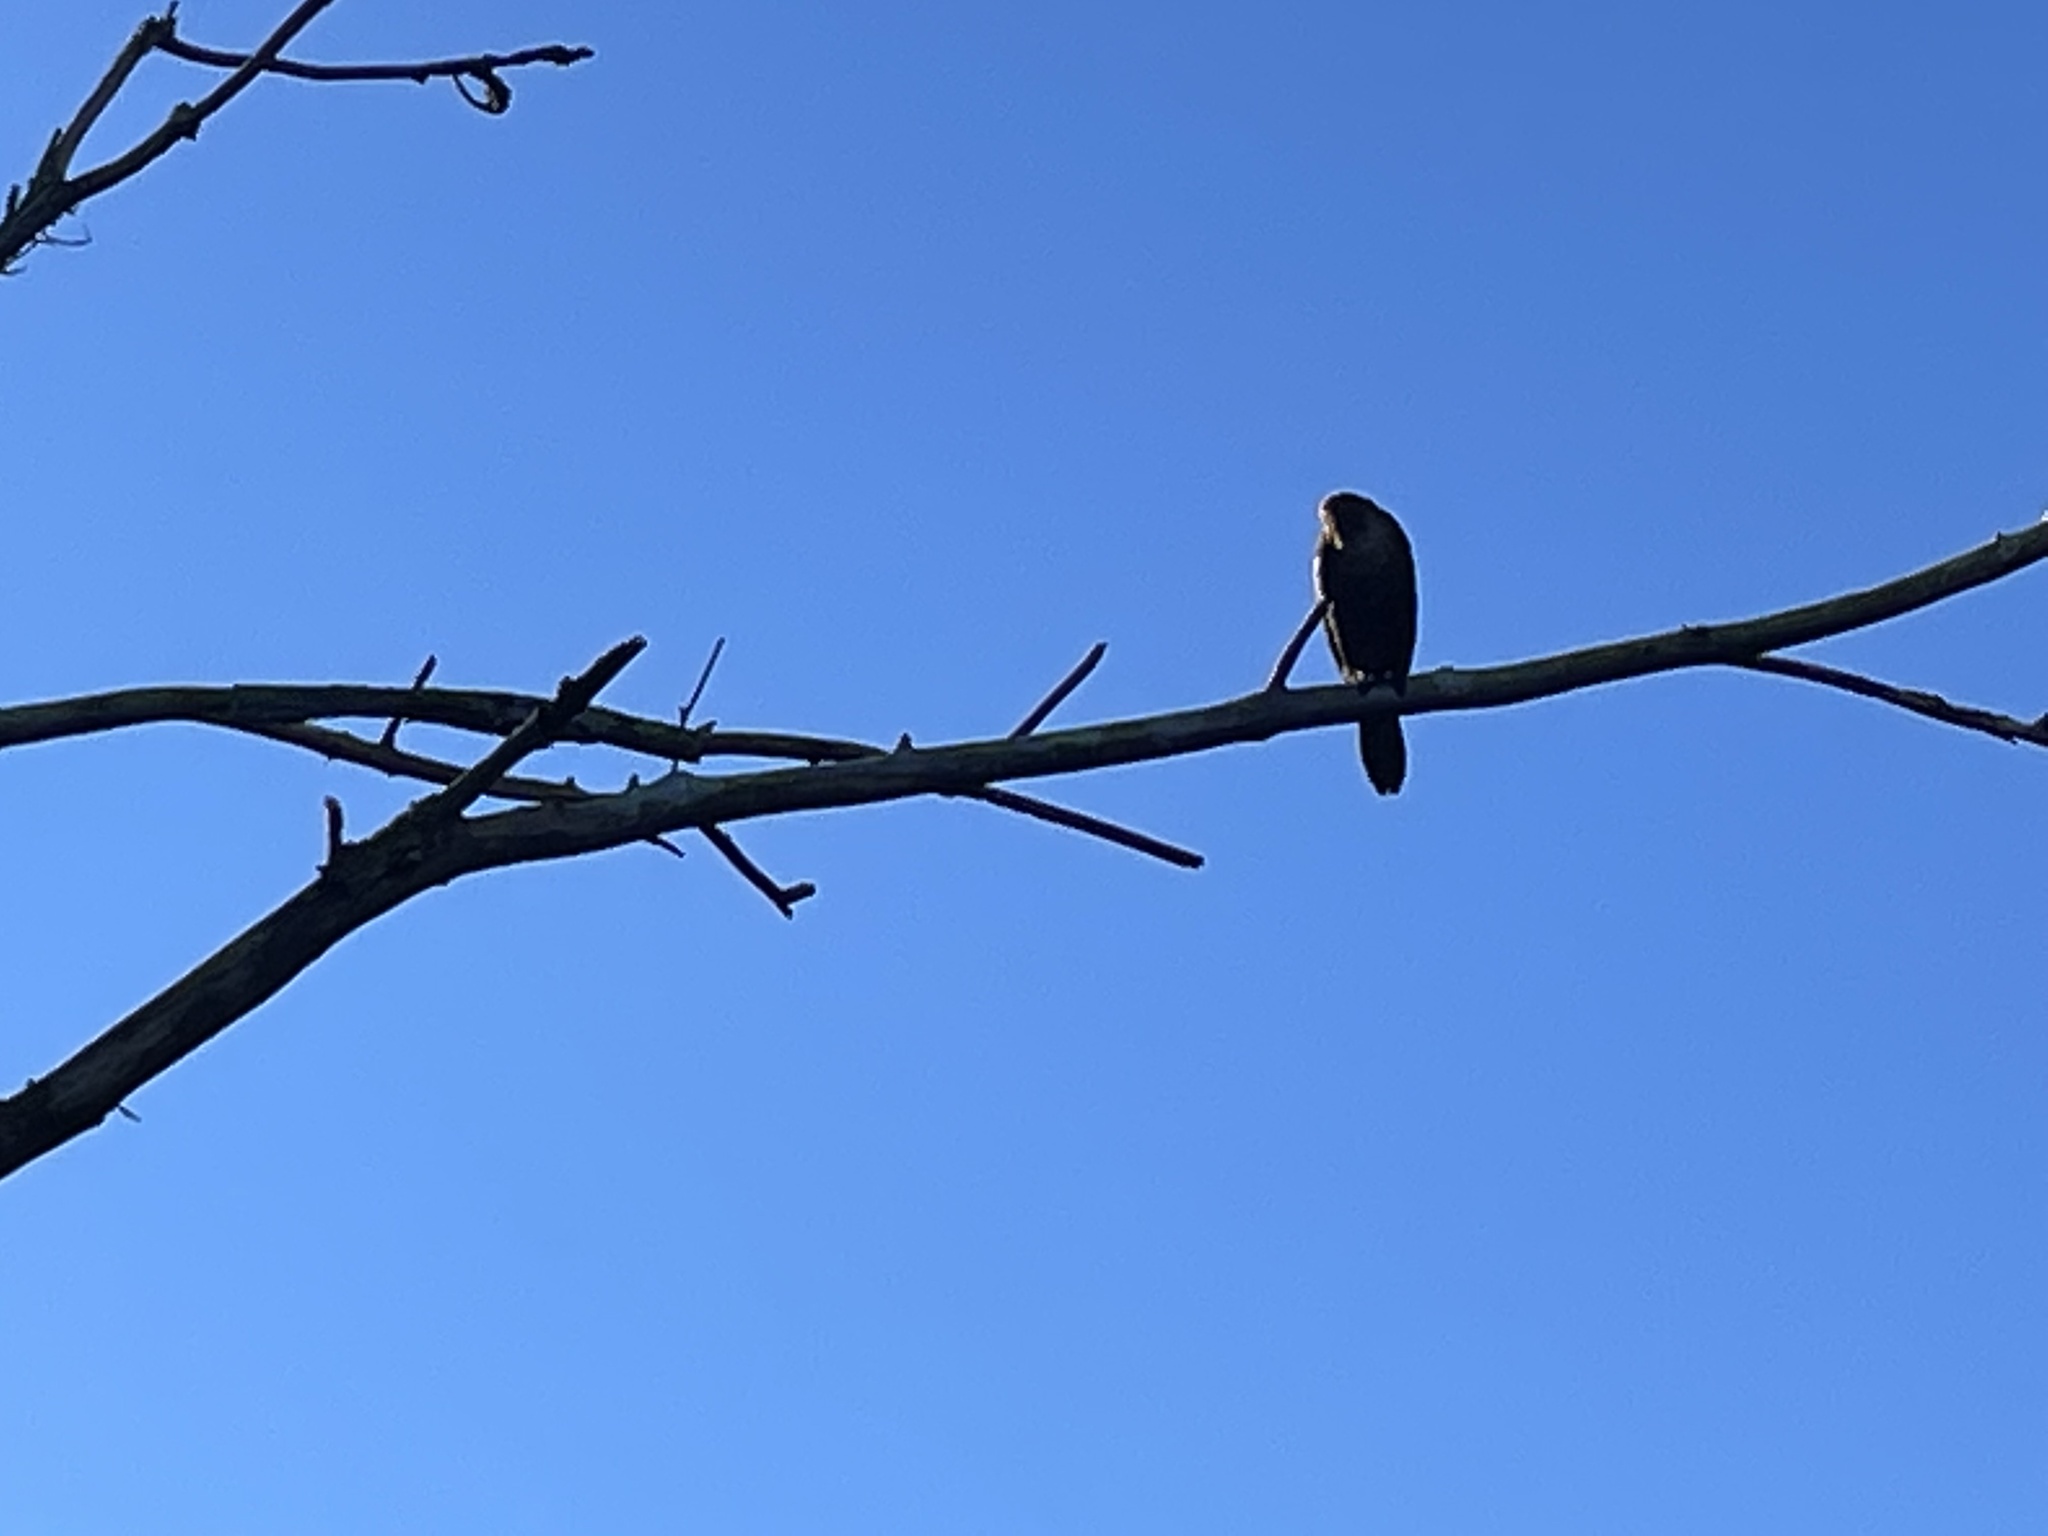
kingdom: Animalia
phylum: Chordata
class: Aves
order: Suliformes
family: Phalacrocoracidae
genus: Phalacrocorax
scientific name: Phalacrocorax auritus
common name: Double-crested cormorant
